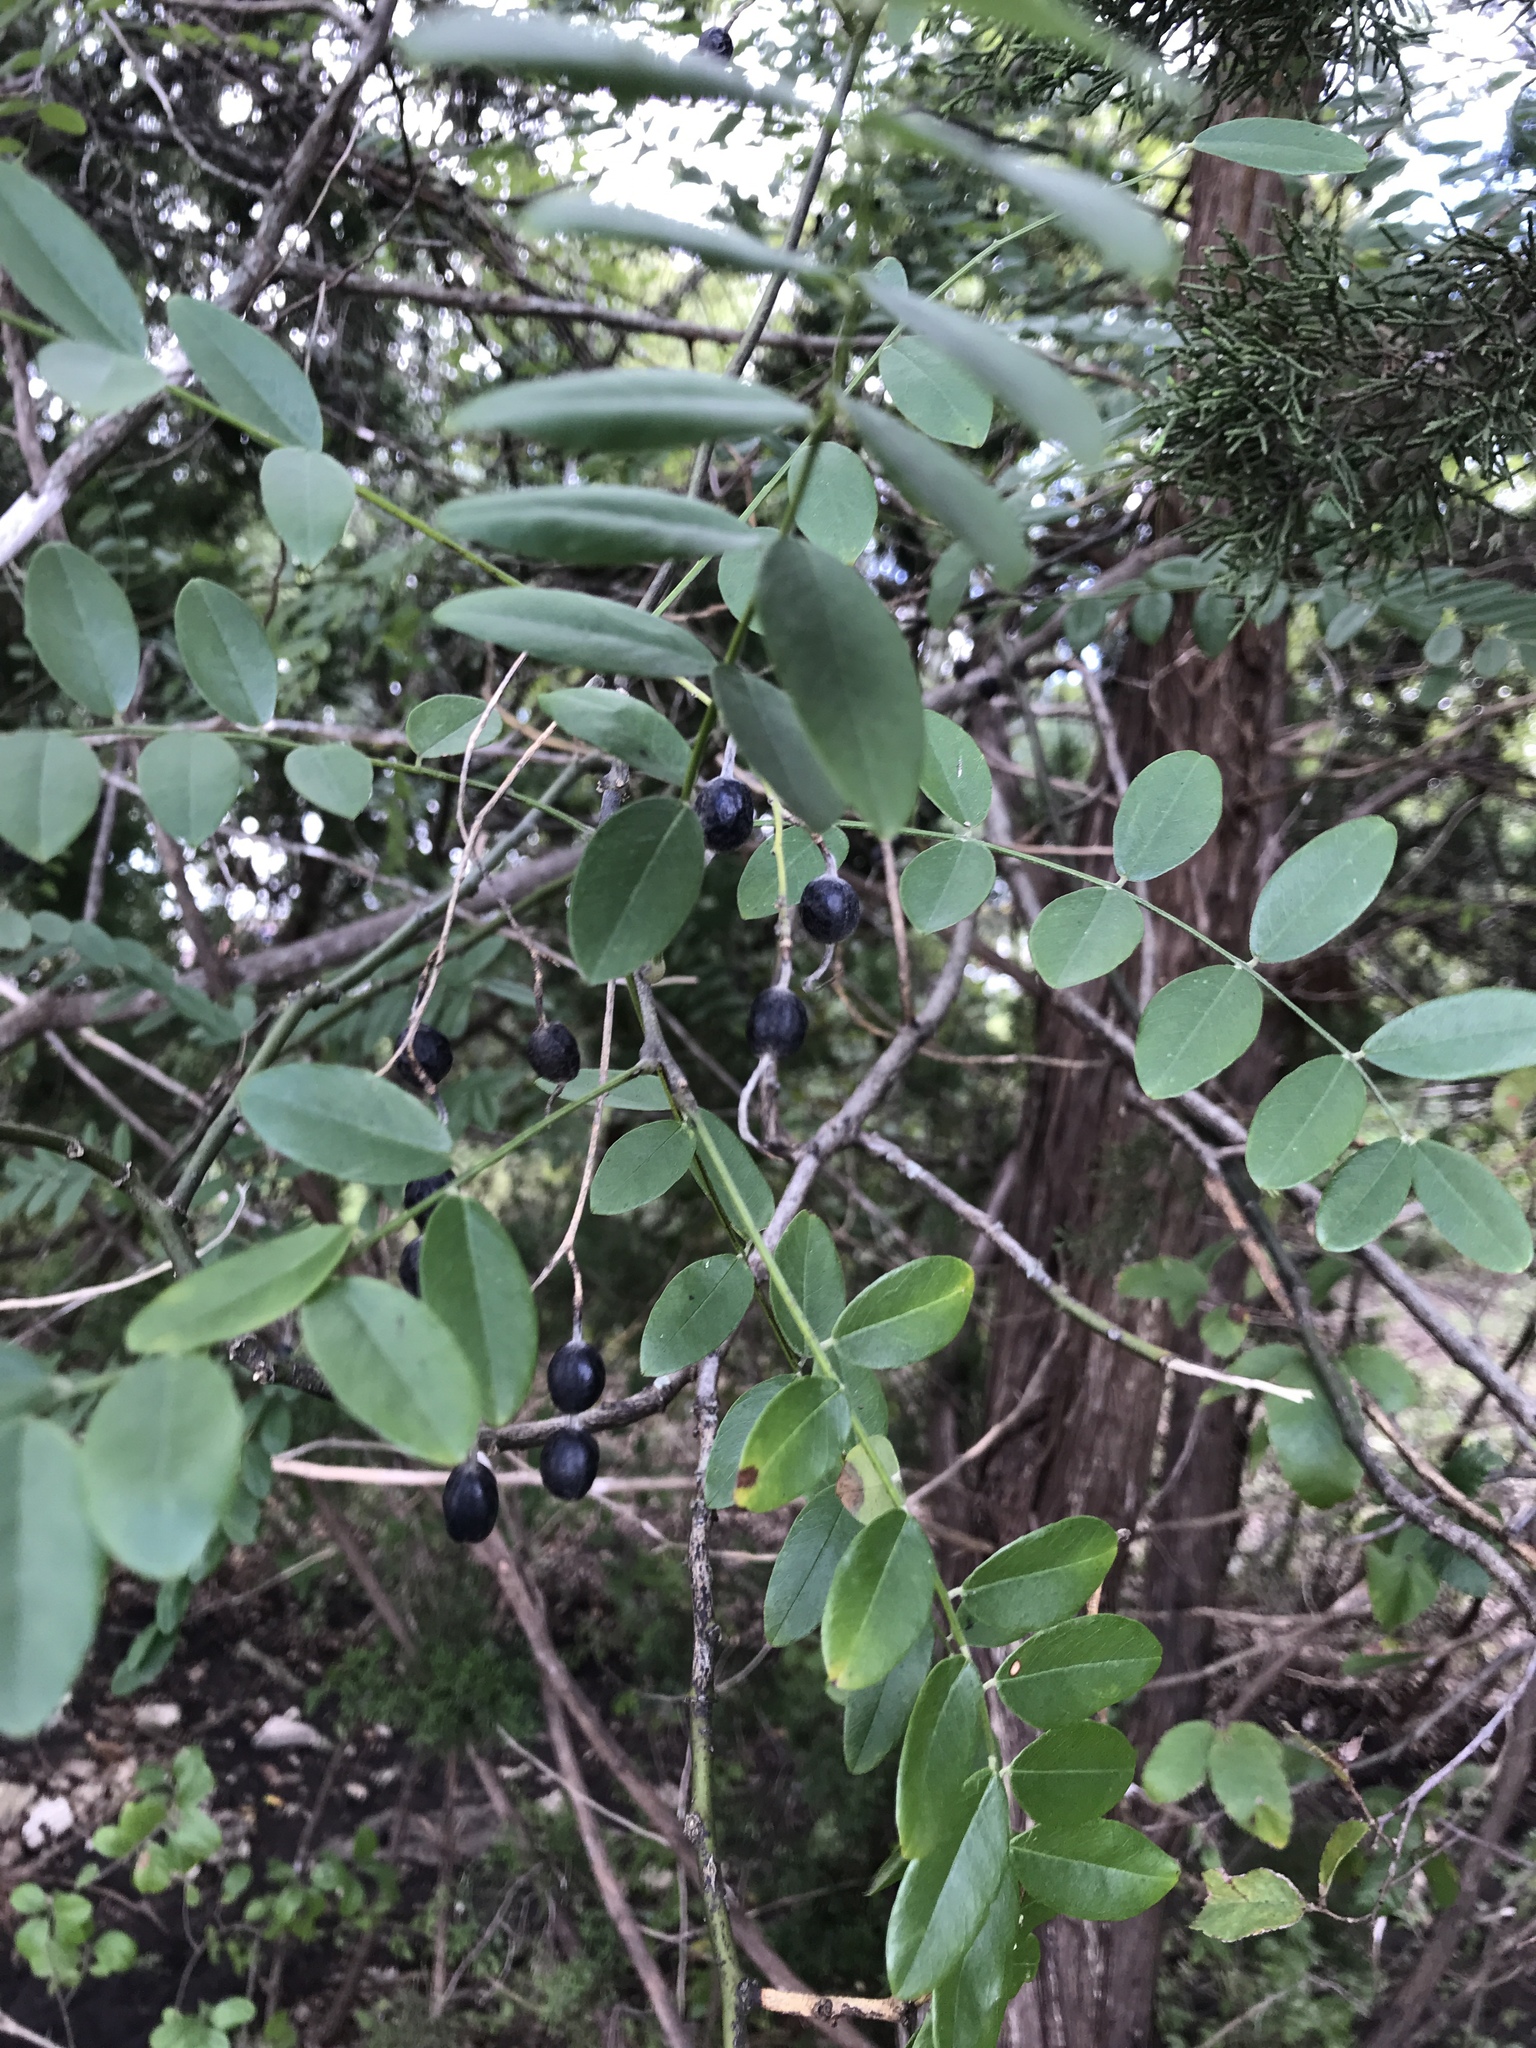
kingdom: Plantae
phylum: Tracheophyta
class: Magnoliopsida
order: Fabales
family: Fabaceae
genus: Styphnolobium
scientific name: Styphnolobium affine
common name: Texas sophora
